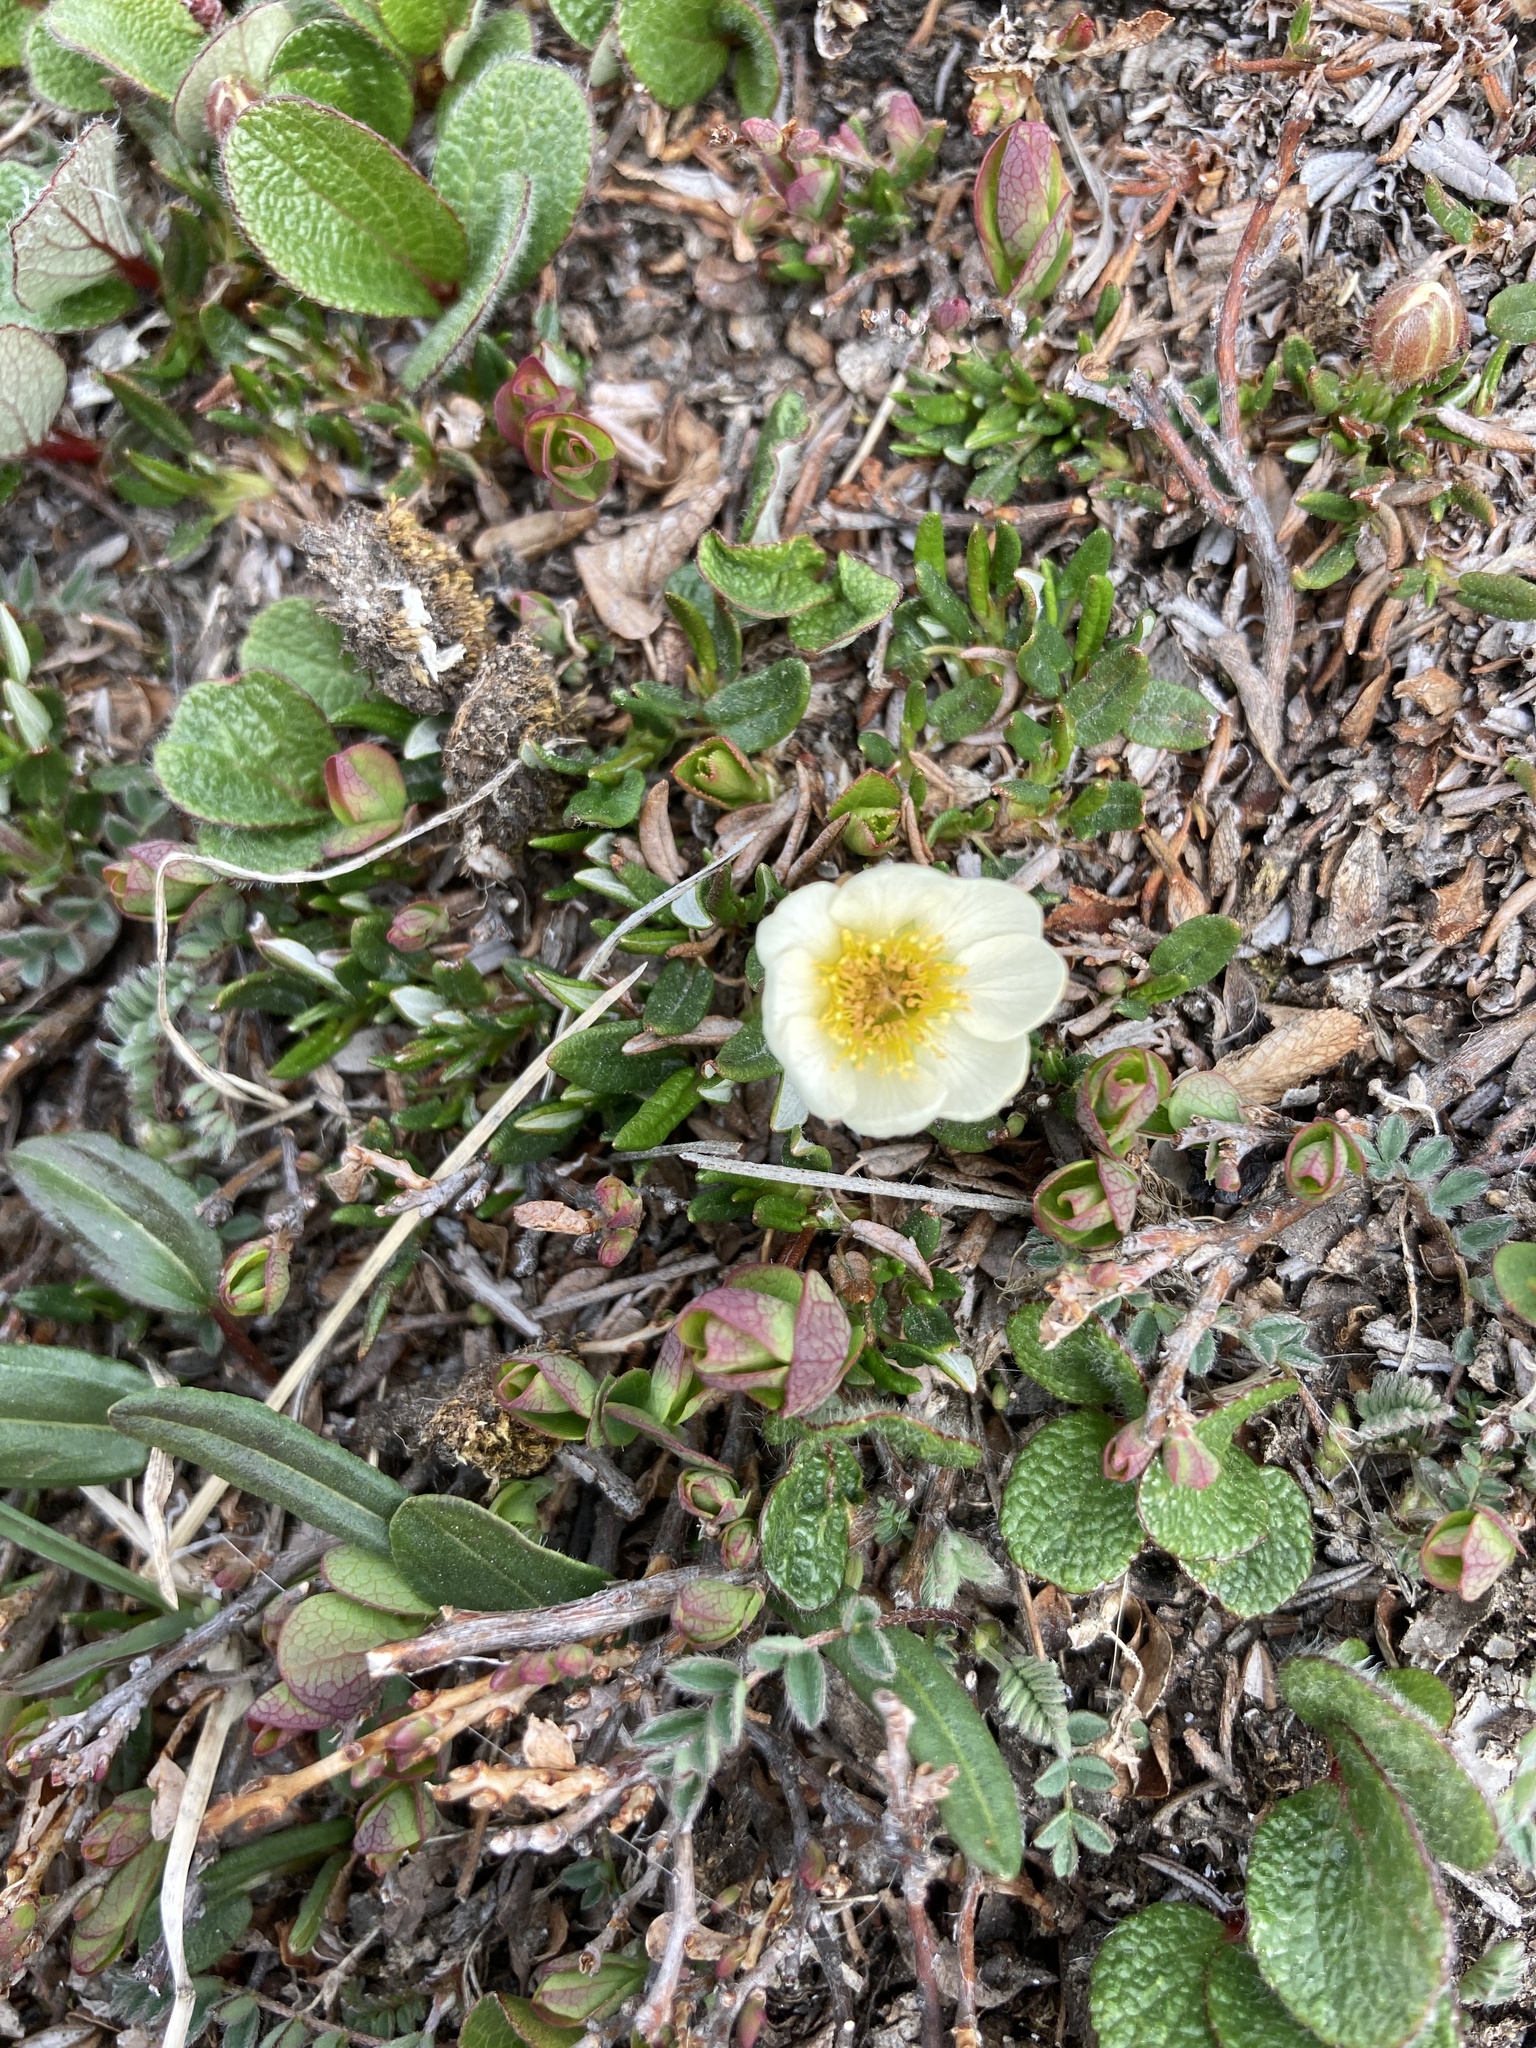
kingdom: Plantae
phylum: Tracheophyta
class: Magnoliopsida
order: Rosales
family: Rosaceae
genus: Dryas
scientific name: Dryas integrifolia
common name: Entire-leaved mountain avens
